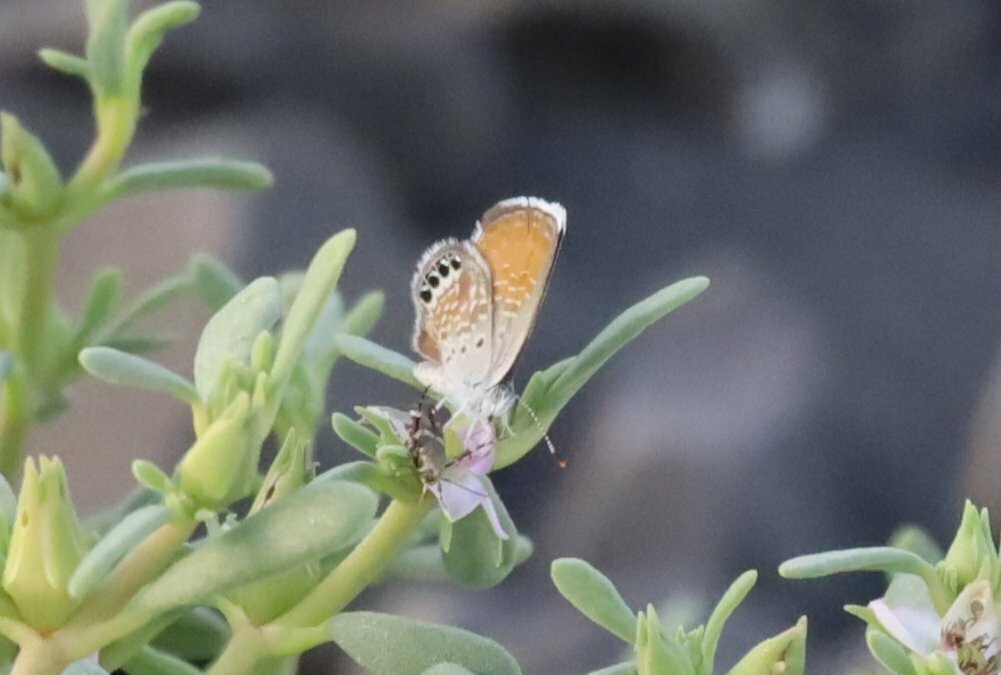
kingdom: Animalia
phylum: Arthropoda
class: Insecta
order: Lepidoptera
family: Lycaenidae
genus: Brephidium
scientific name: Brephidium exilis
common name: Pygmy blue
